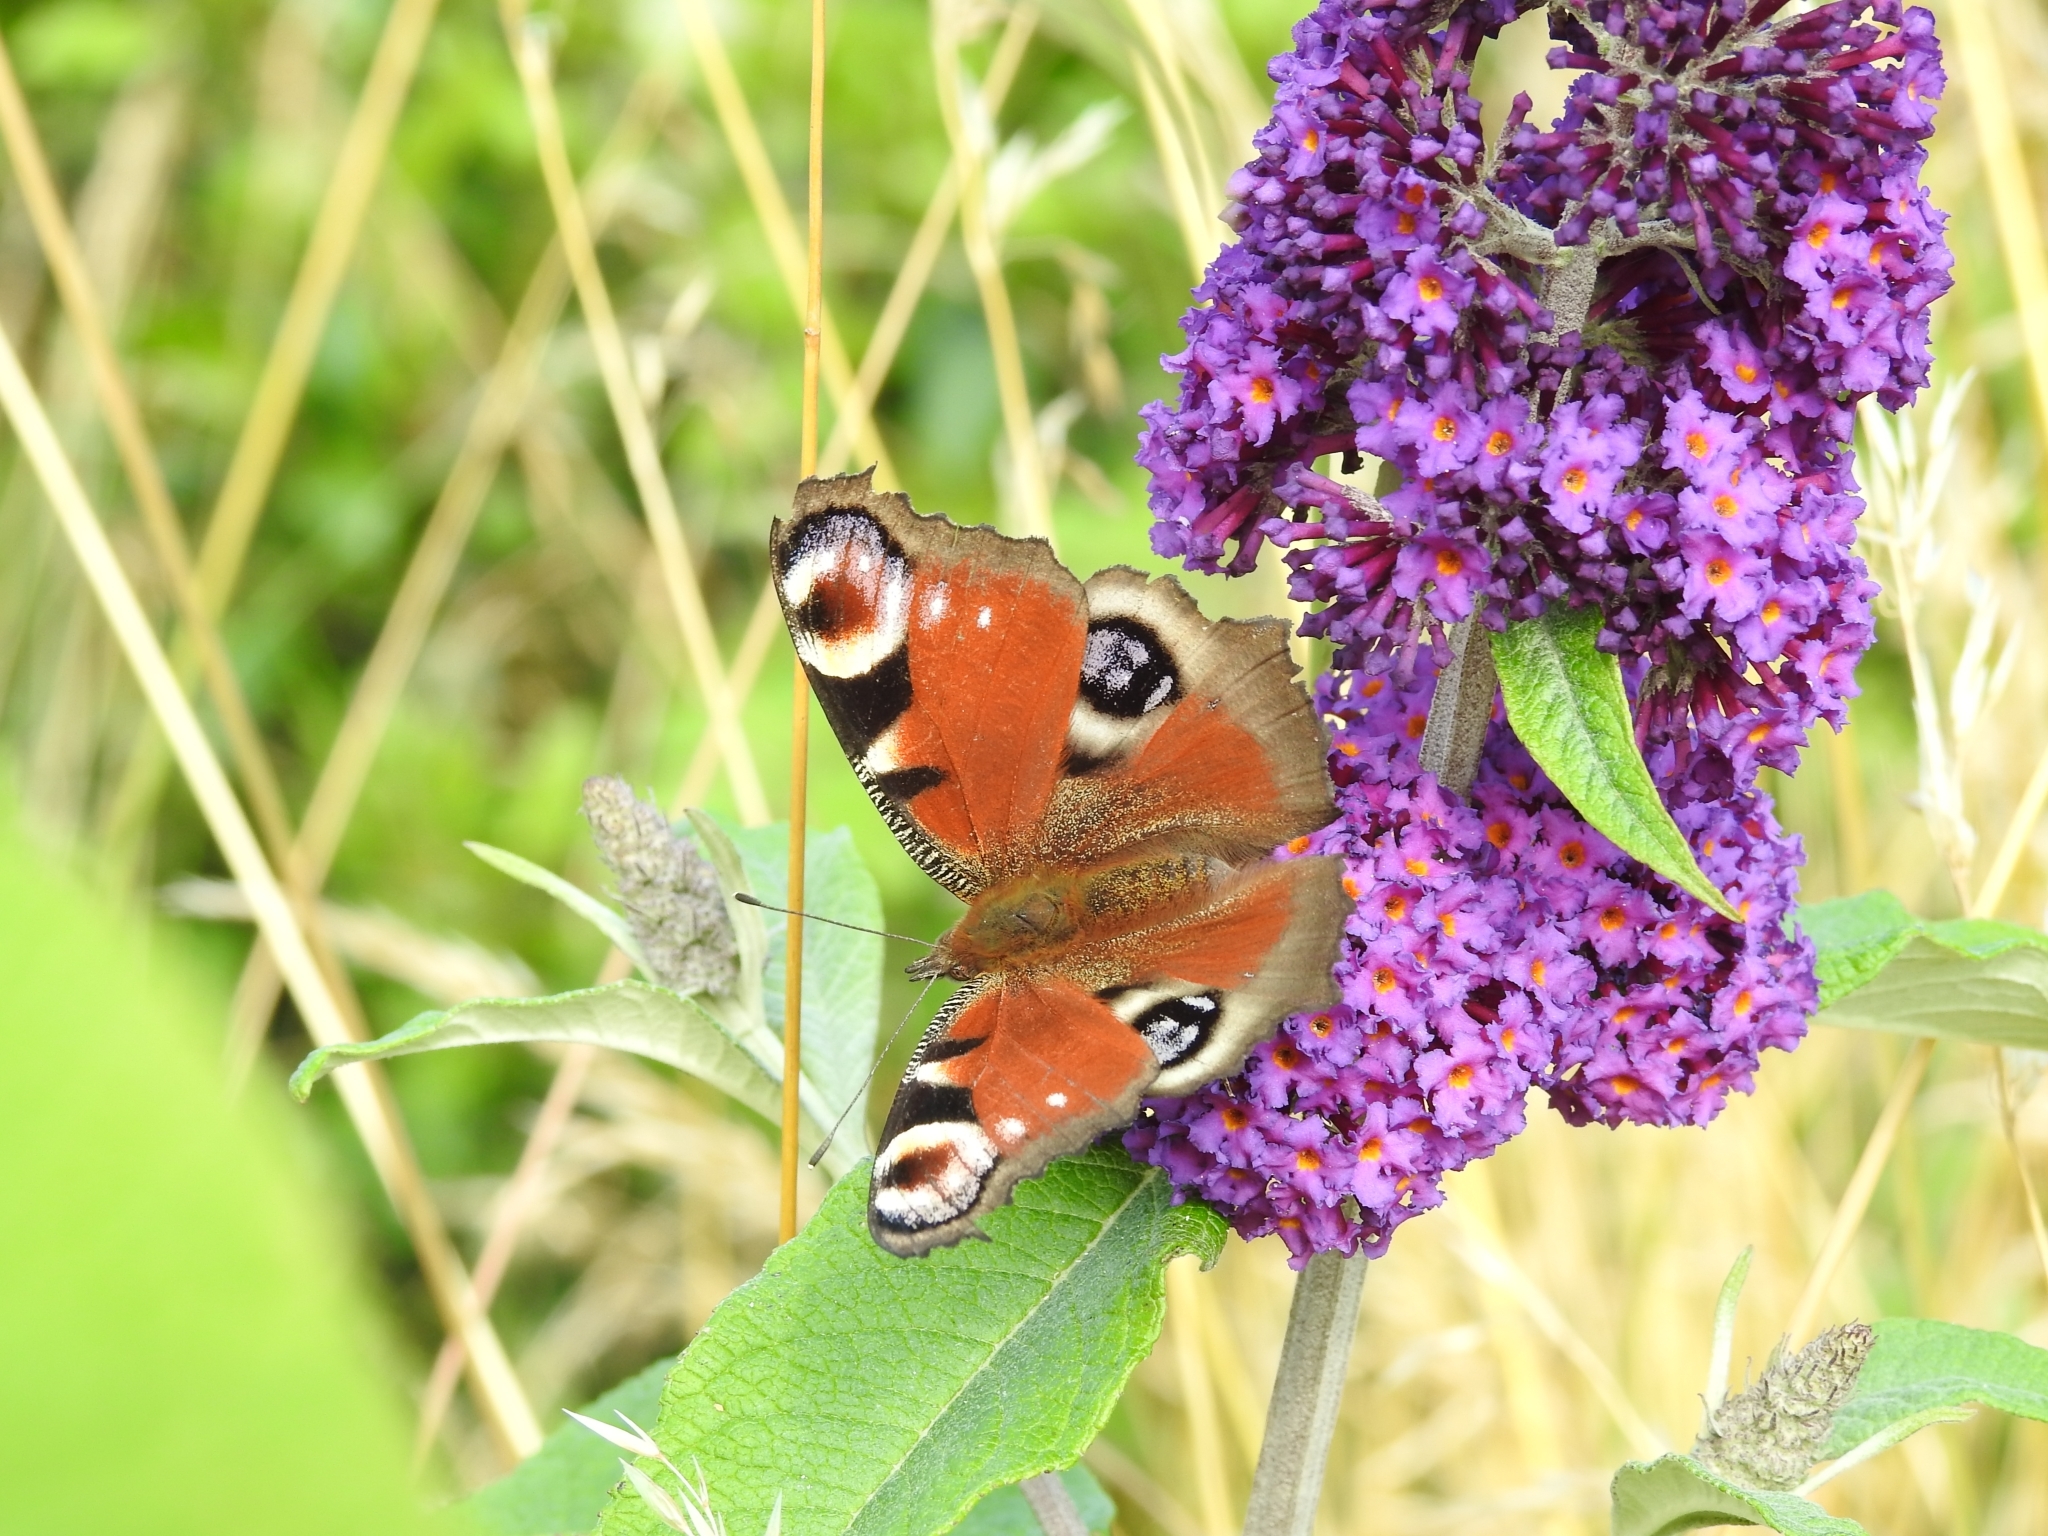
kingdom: Animalia
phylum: Arthropoda
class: Insecta
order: Lepidoptera
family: Nymphalidae
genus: Aglais
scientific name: Aglais io
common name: Peacock
